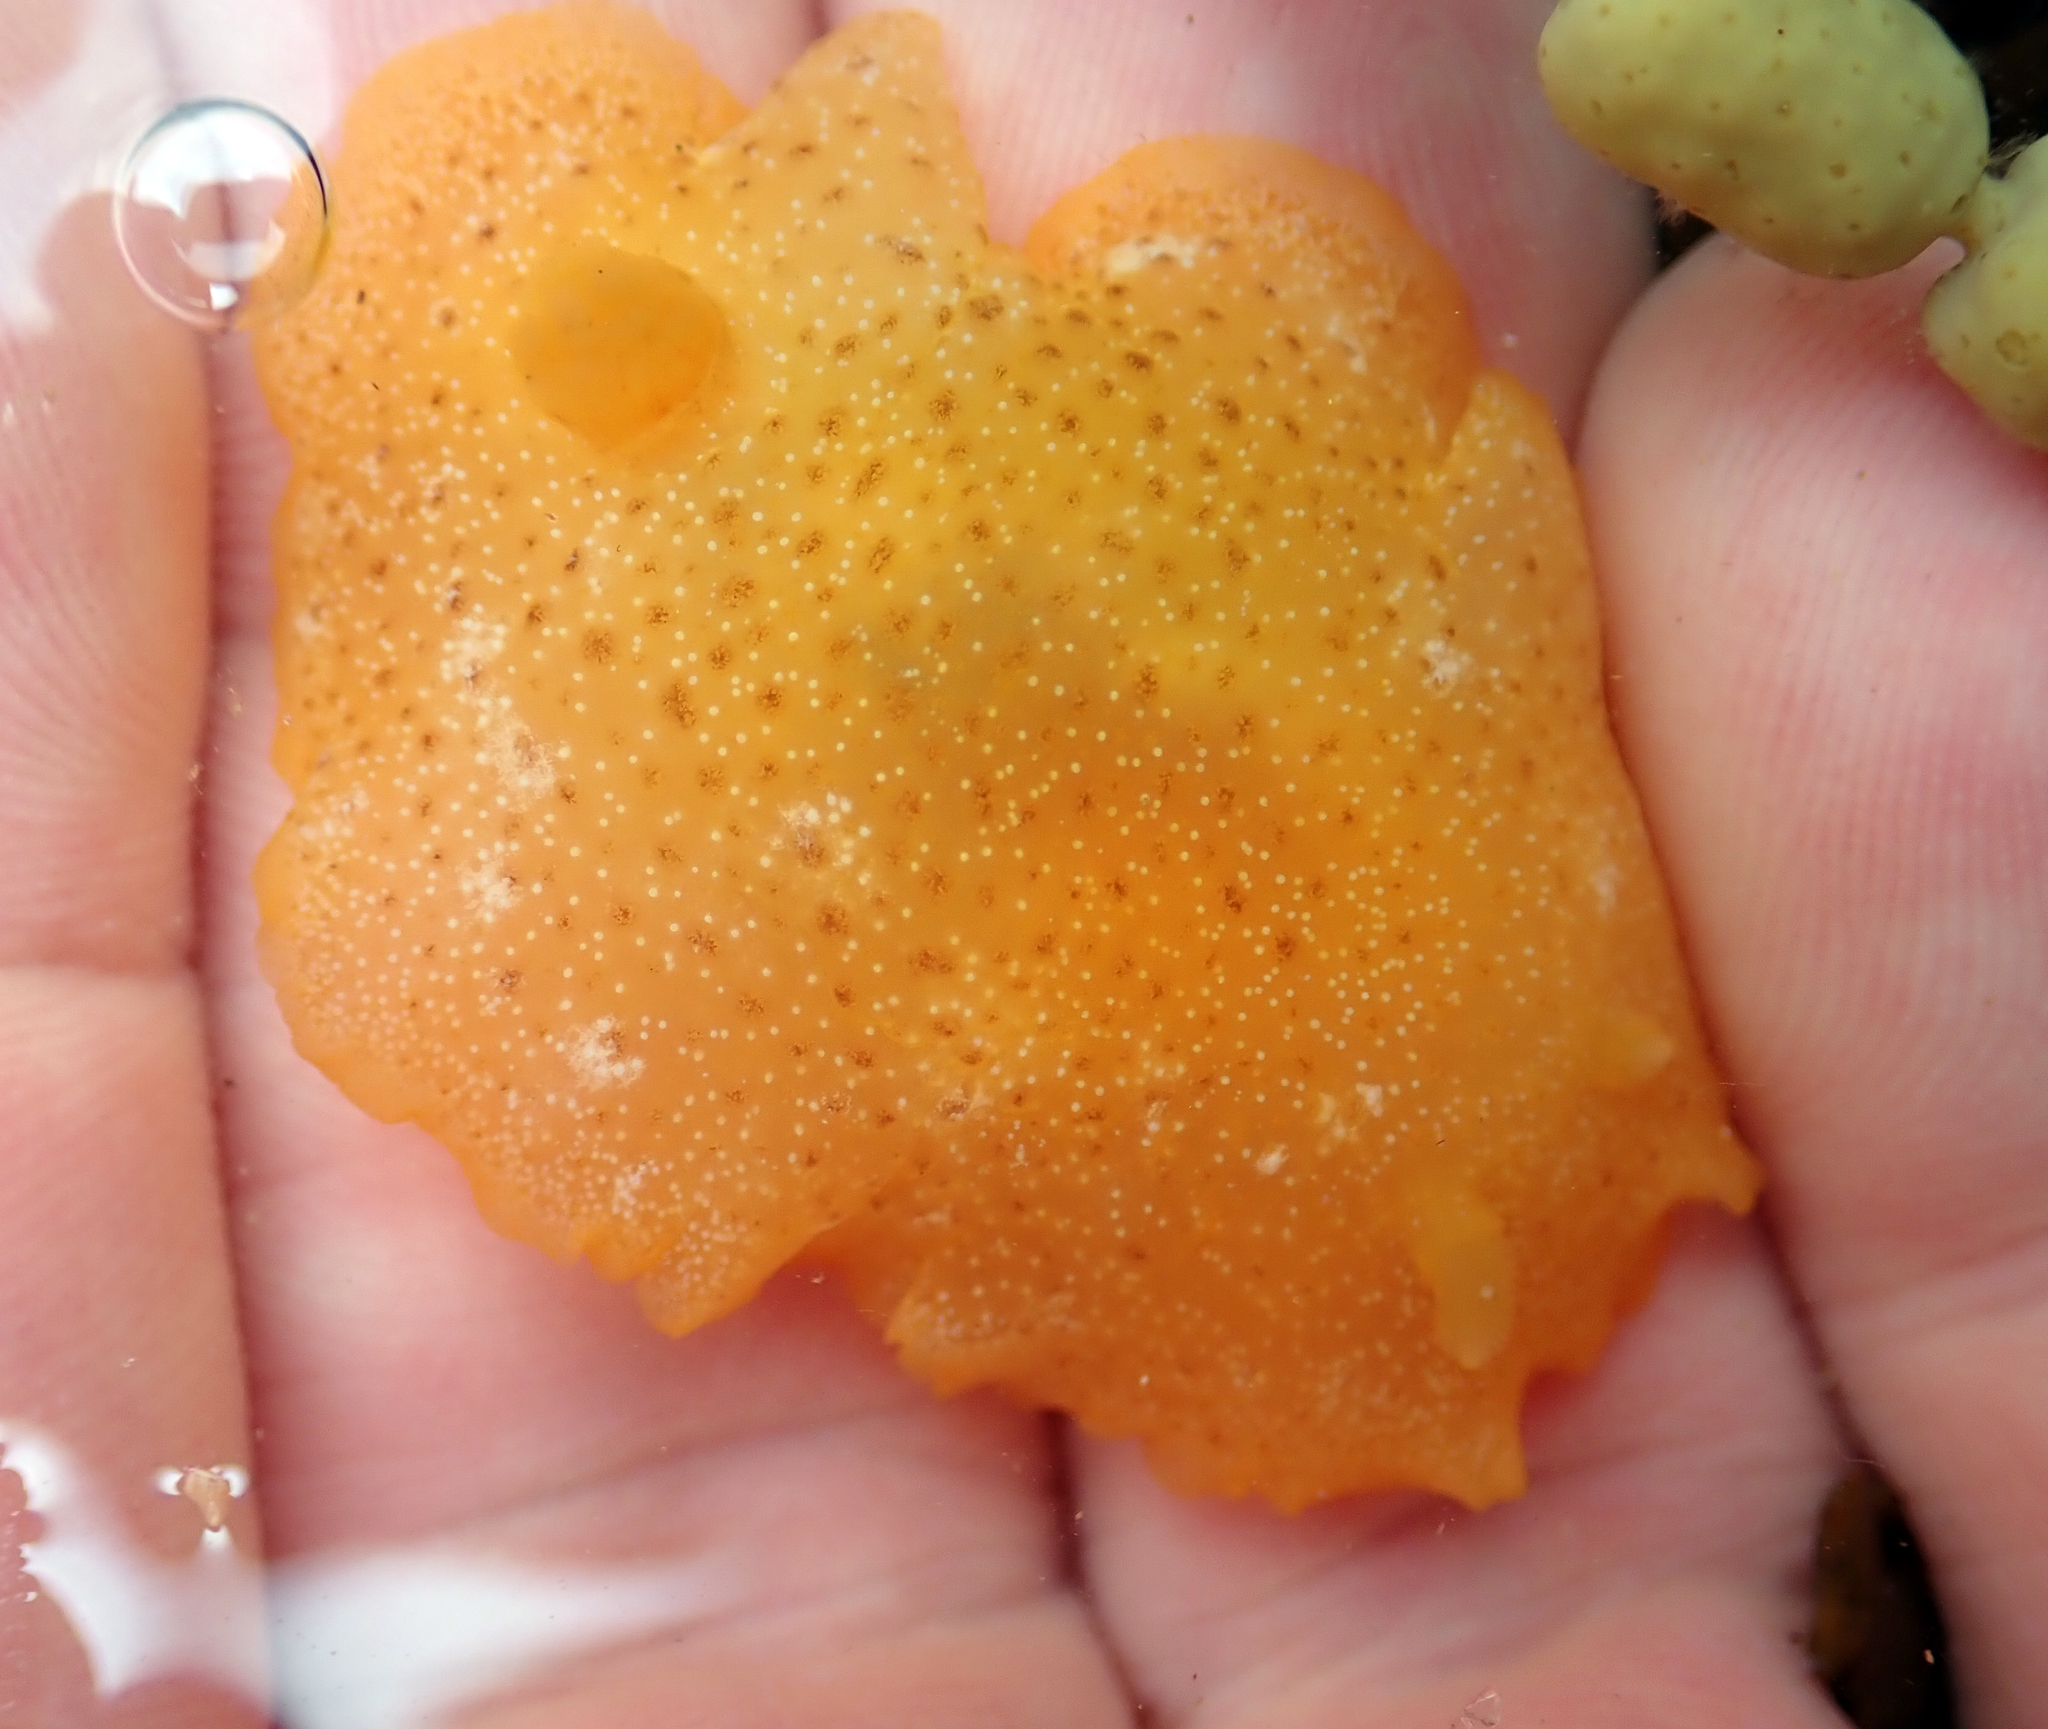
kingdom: Animalia
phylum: Mollusca
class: Gastropoda
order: Nudibranchia
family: Dendrodorididae
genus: Dendrodoris
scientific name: Dendrodoris citrina
